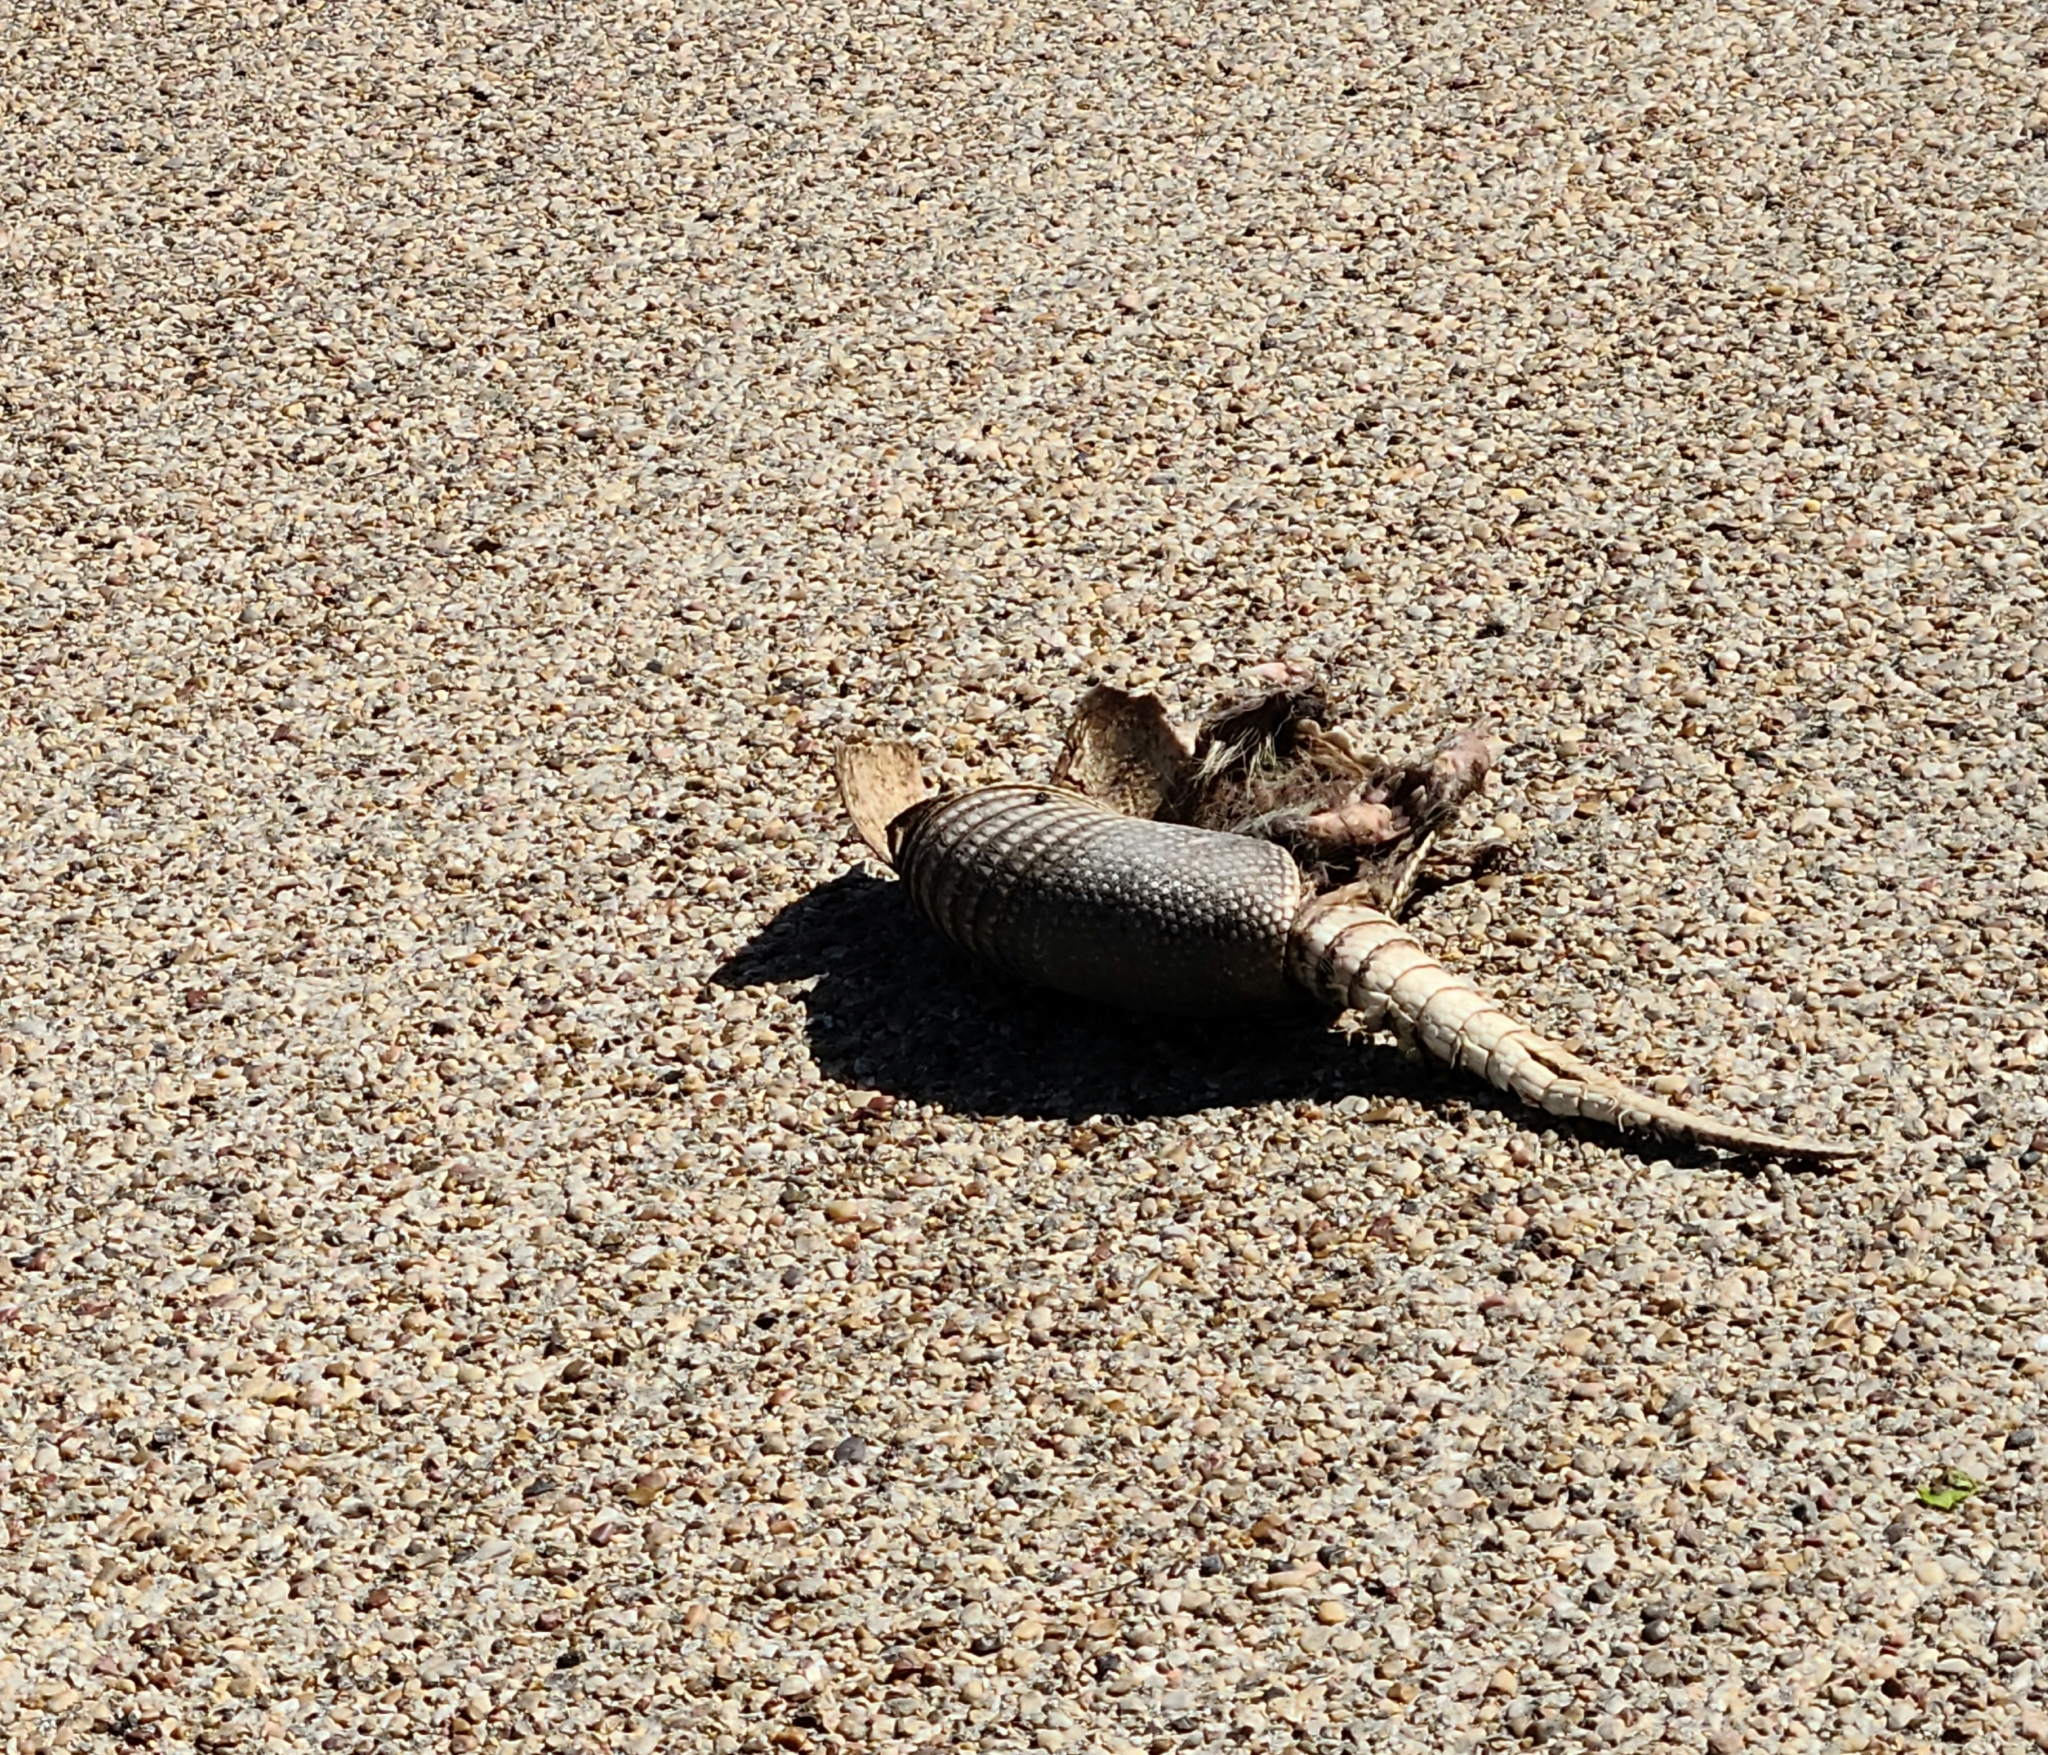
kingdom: Animalia
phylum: Chordata
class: Mammalia
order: Cingulata
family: Dasypodidae
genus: Dasypus
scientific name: Dasypus novemcinctus
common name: Nine-banded armadillo
